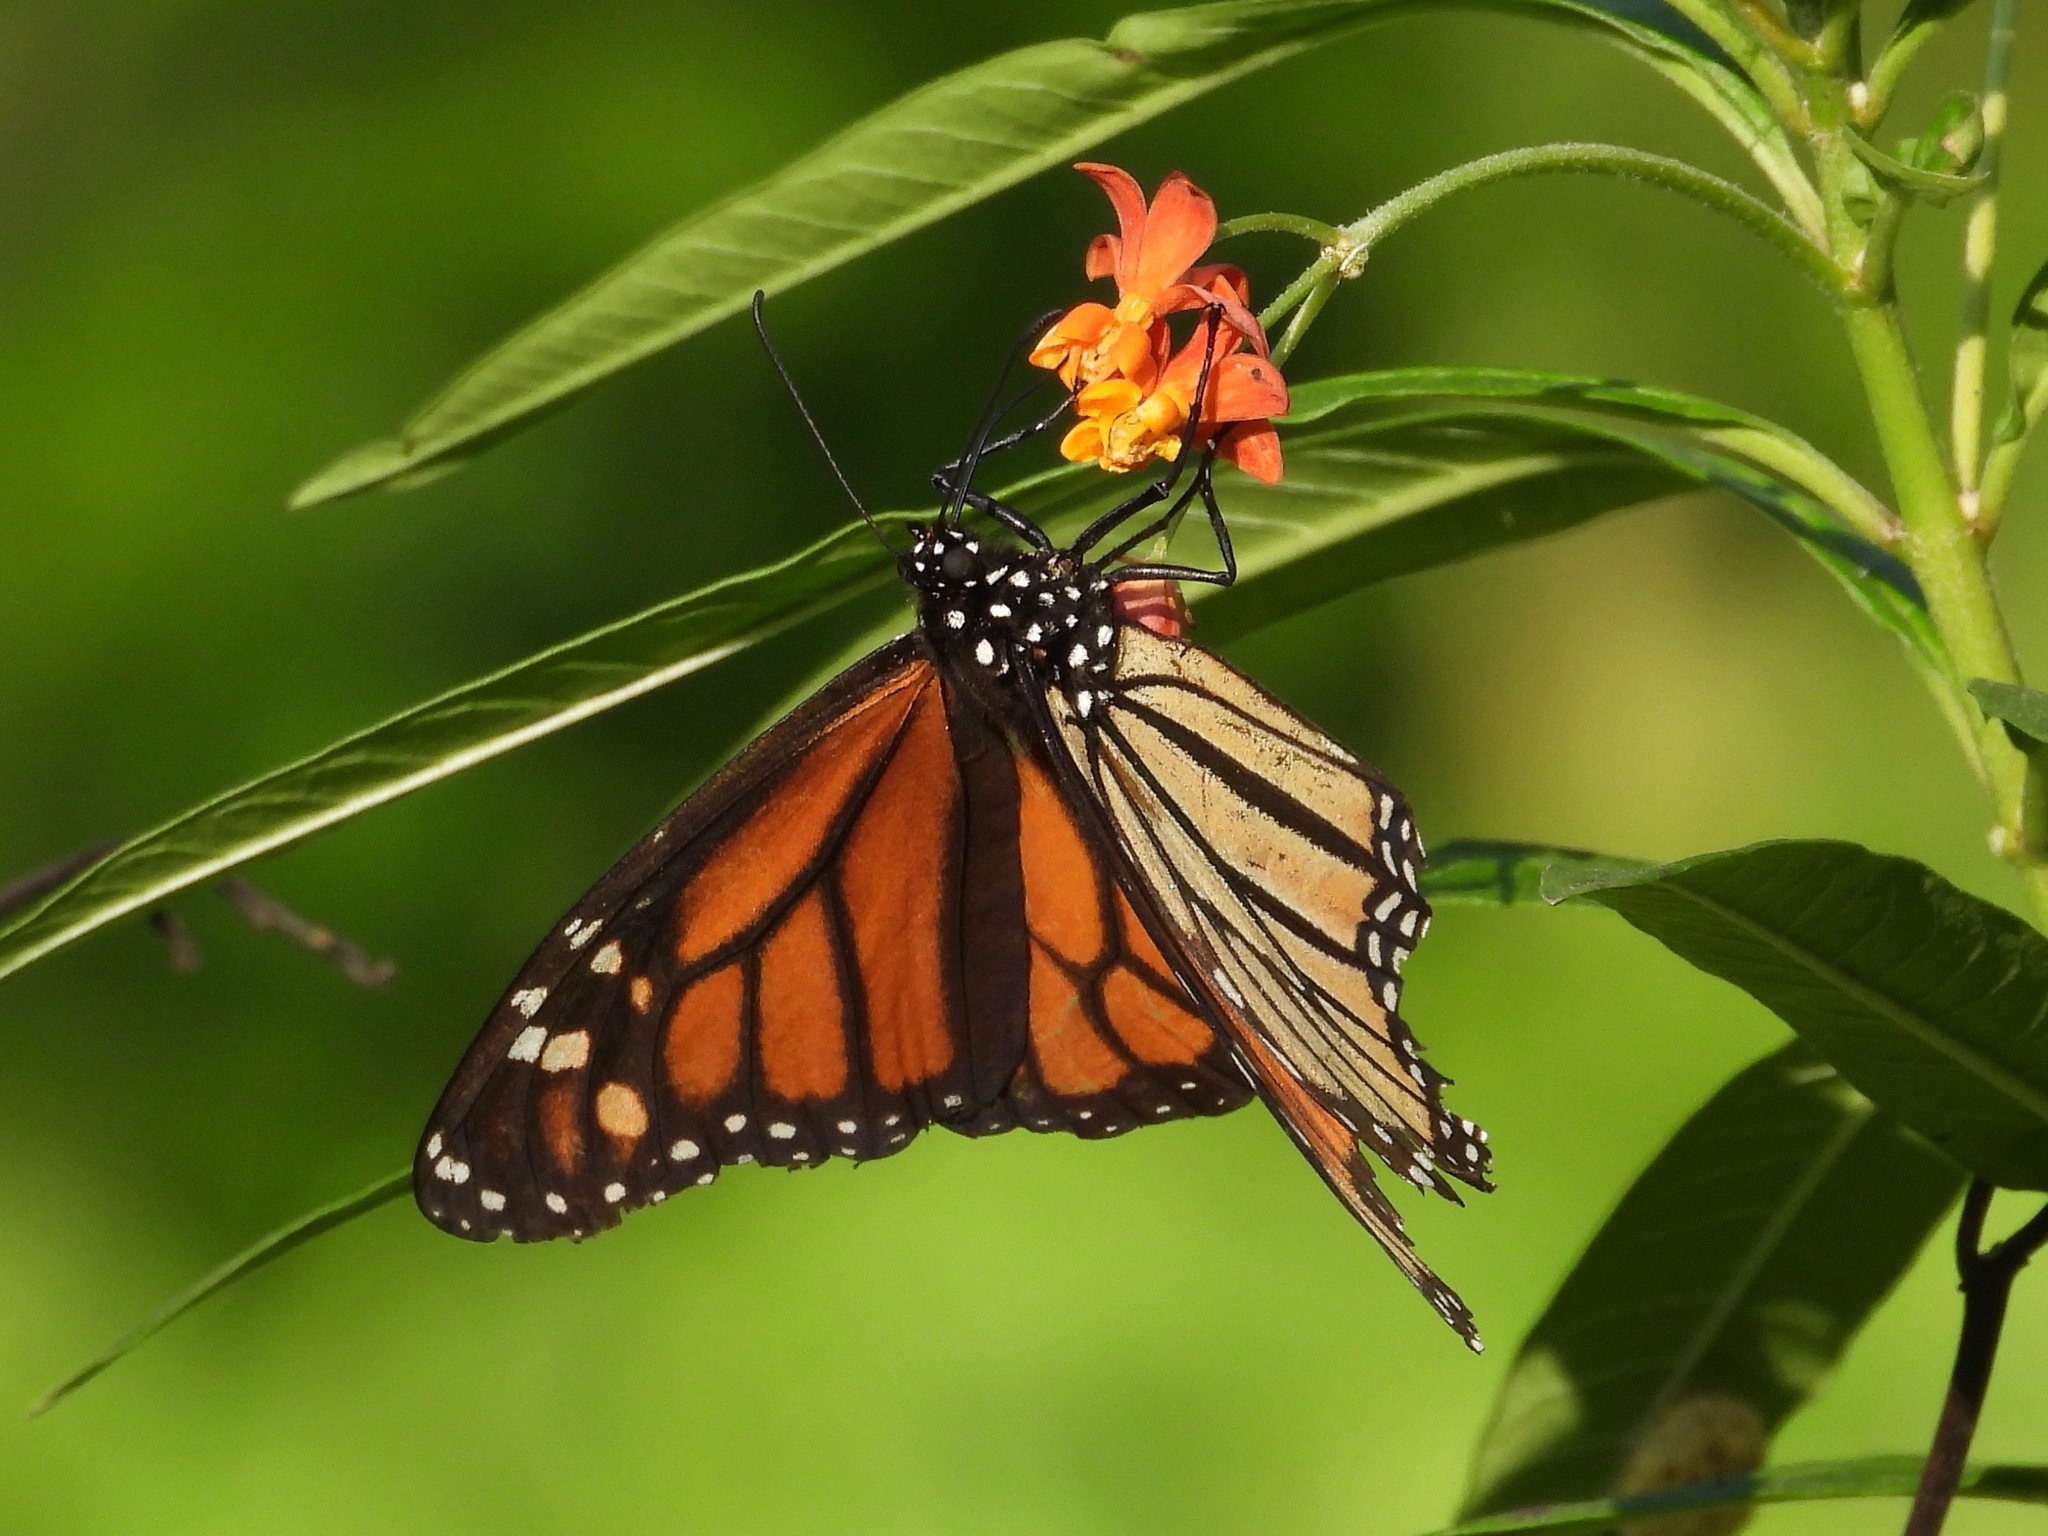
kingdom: Animalia
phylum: Arthropoda
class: Insecta
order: Lepidoptera
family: Nymphalidae
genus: Danaus
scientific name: Danaus plexippus
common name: Monarch
